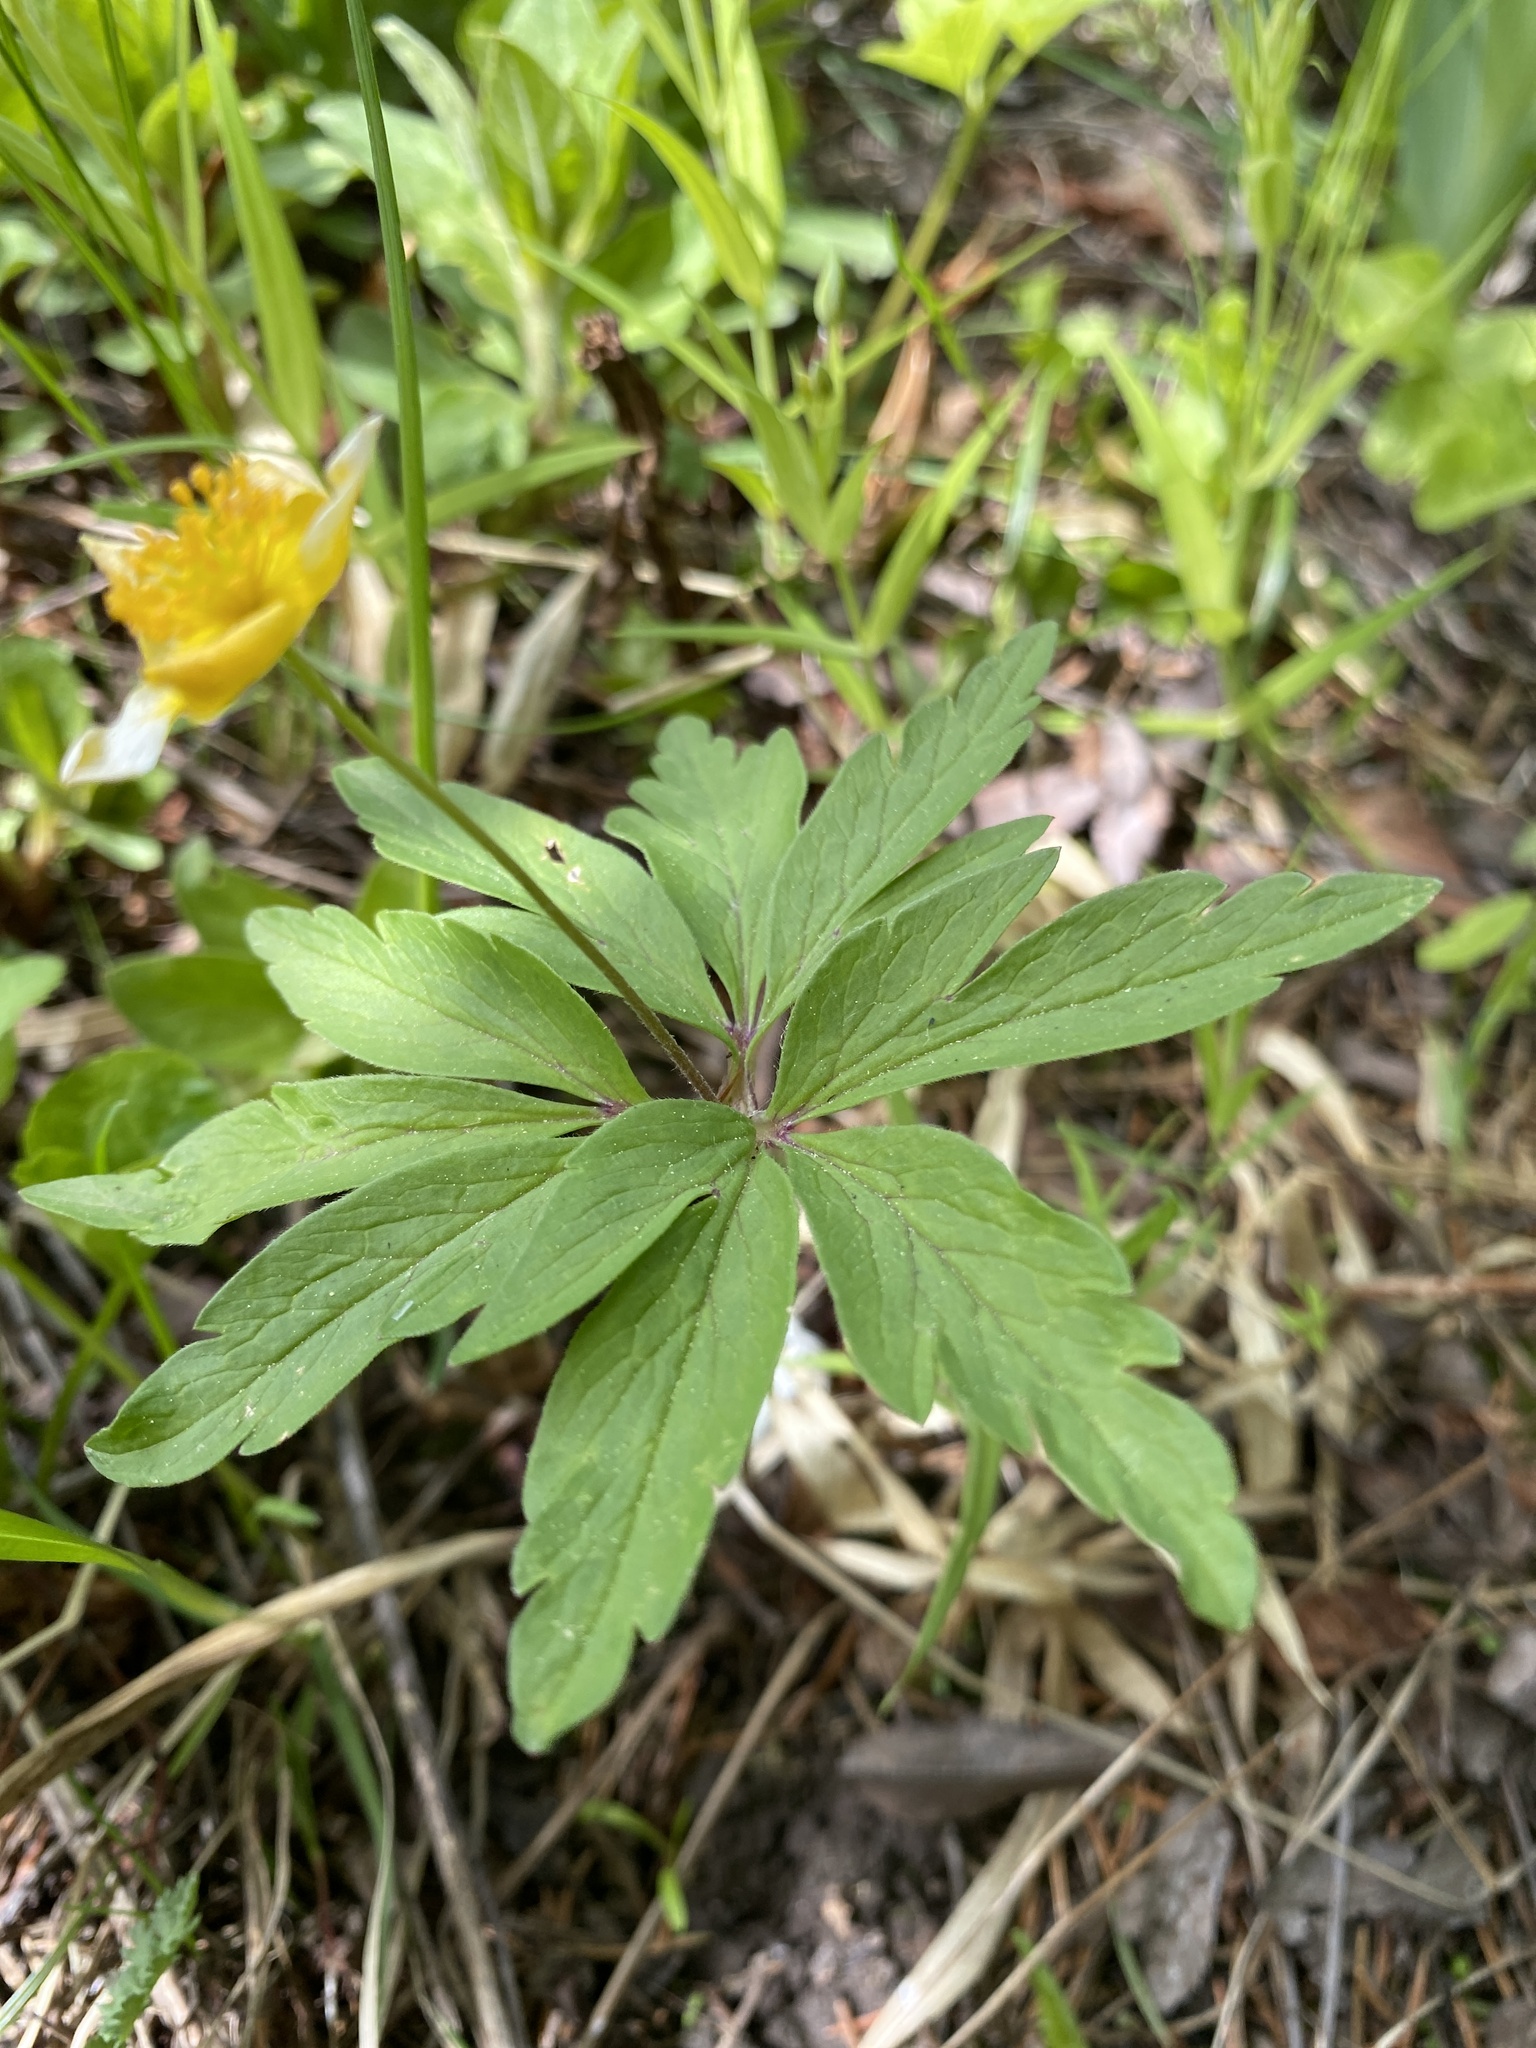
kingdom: Plantae
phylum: Tracheophyta
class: Magnoliopsida
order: Ranunculales
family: Ranunculaceae
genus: Anemone
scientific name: Anemone ranunculoides
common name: Yellow anemone
